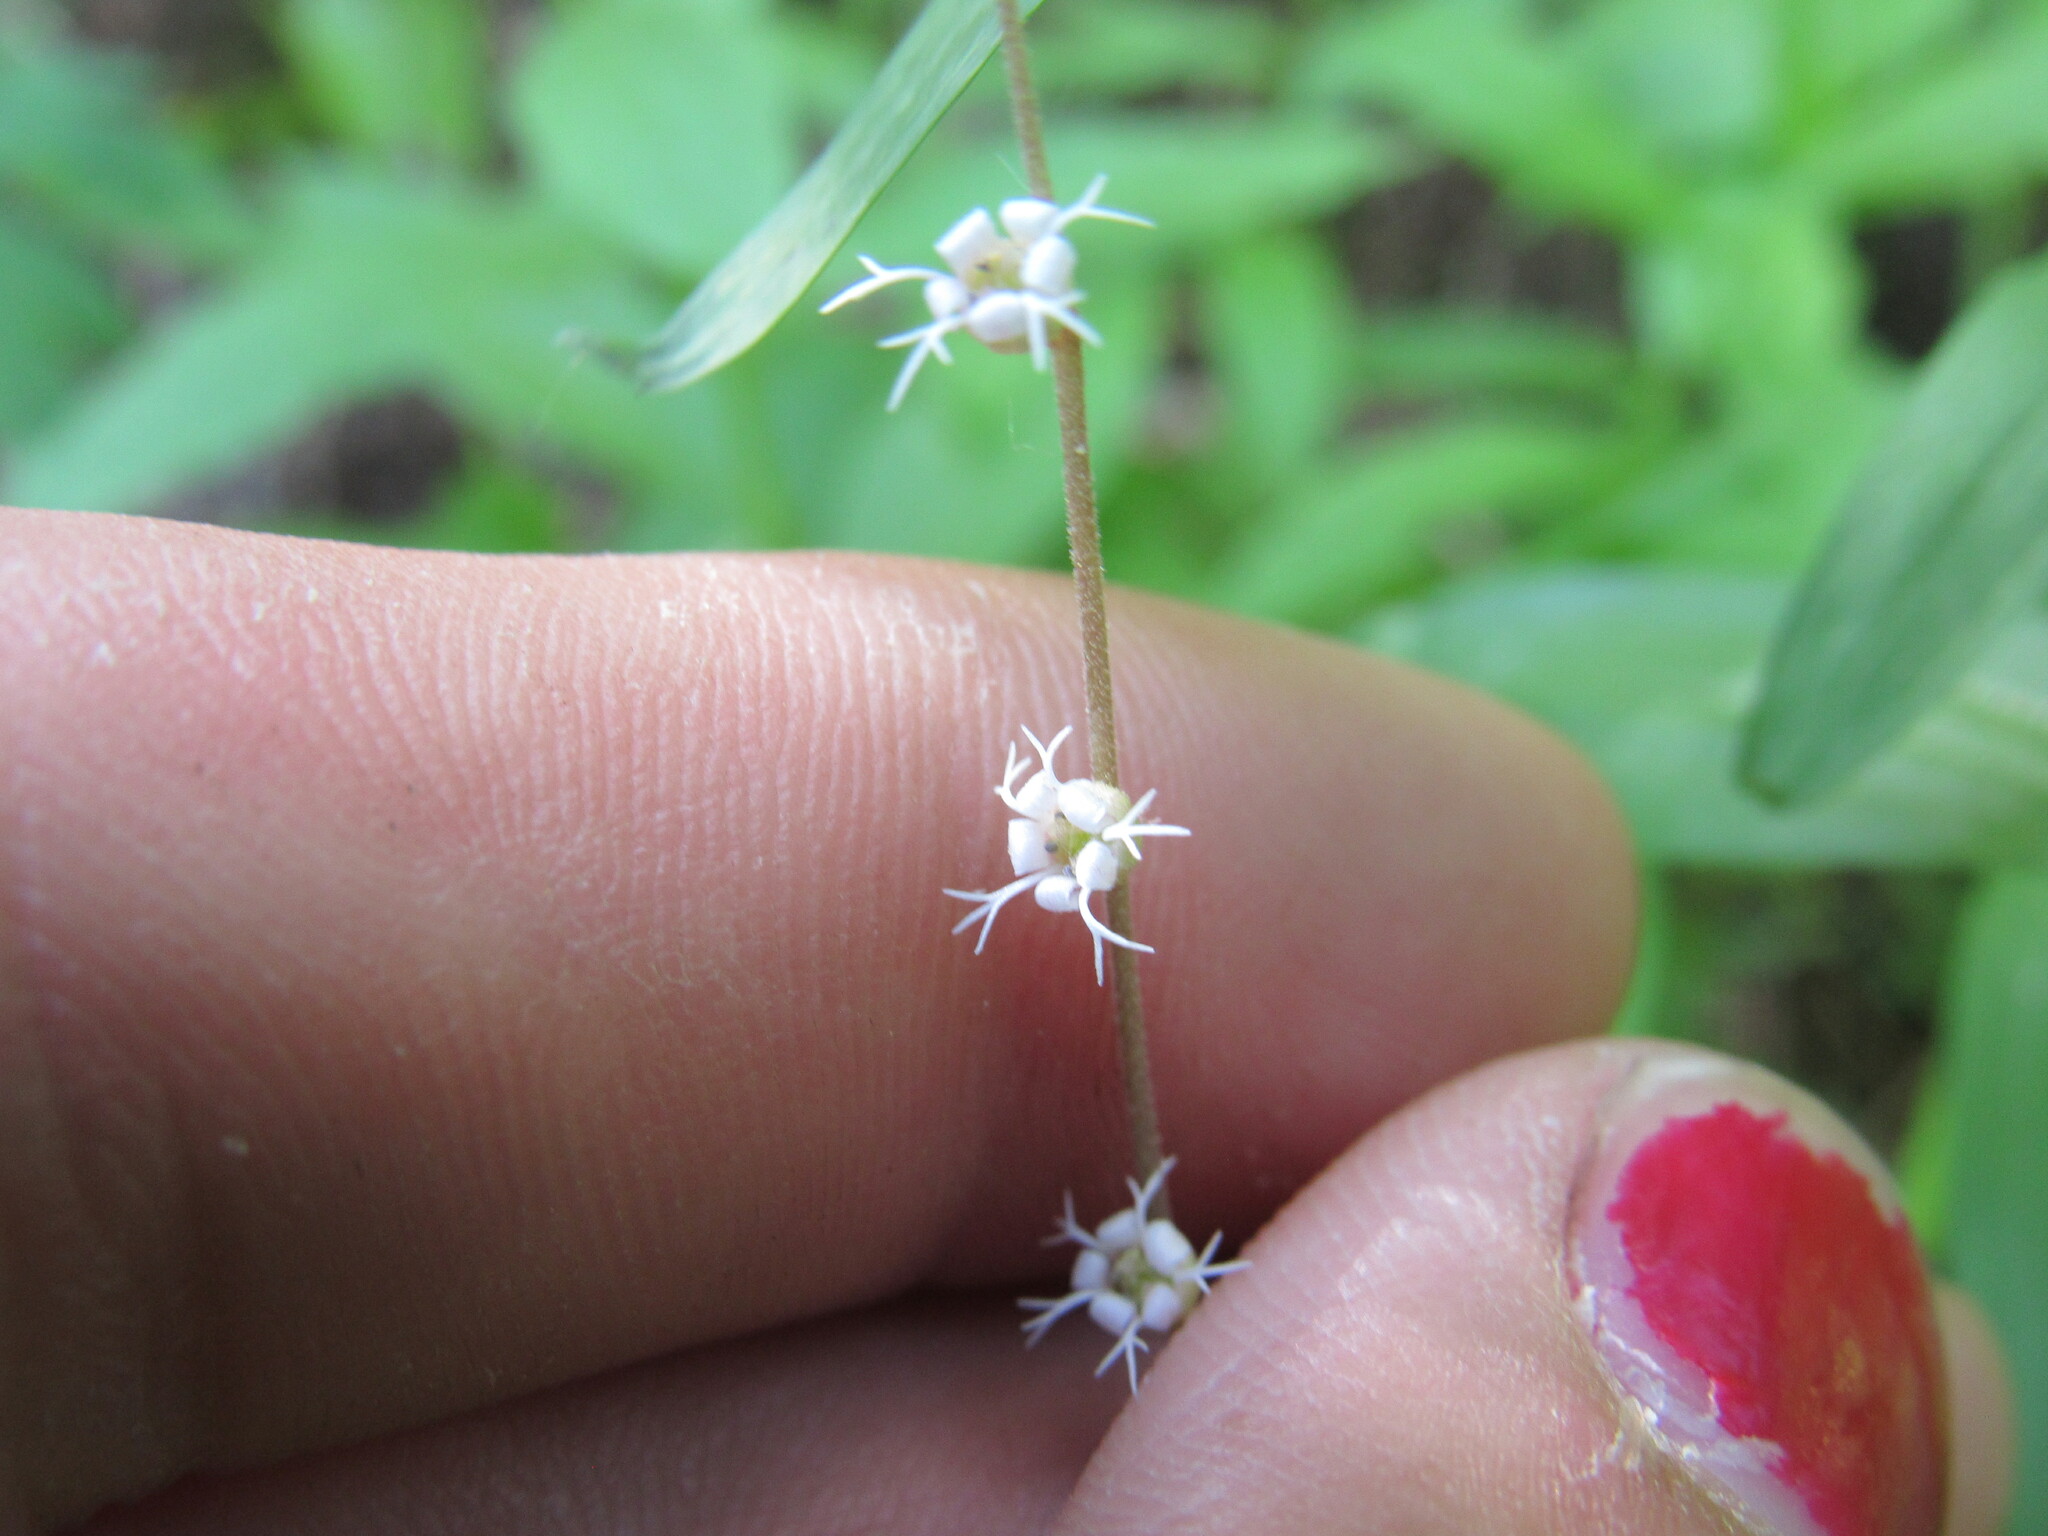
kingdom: Plantae
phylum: Tracheophyta
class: Magnoliopsida
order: Saxifragales
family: Saxifragaceae
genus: Ozomelis
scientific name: Ozomelis stauropetala
